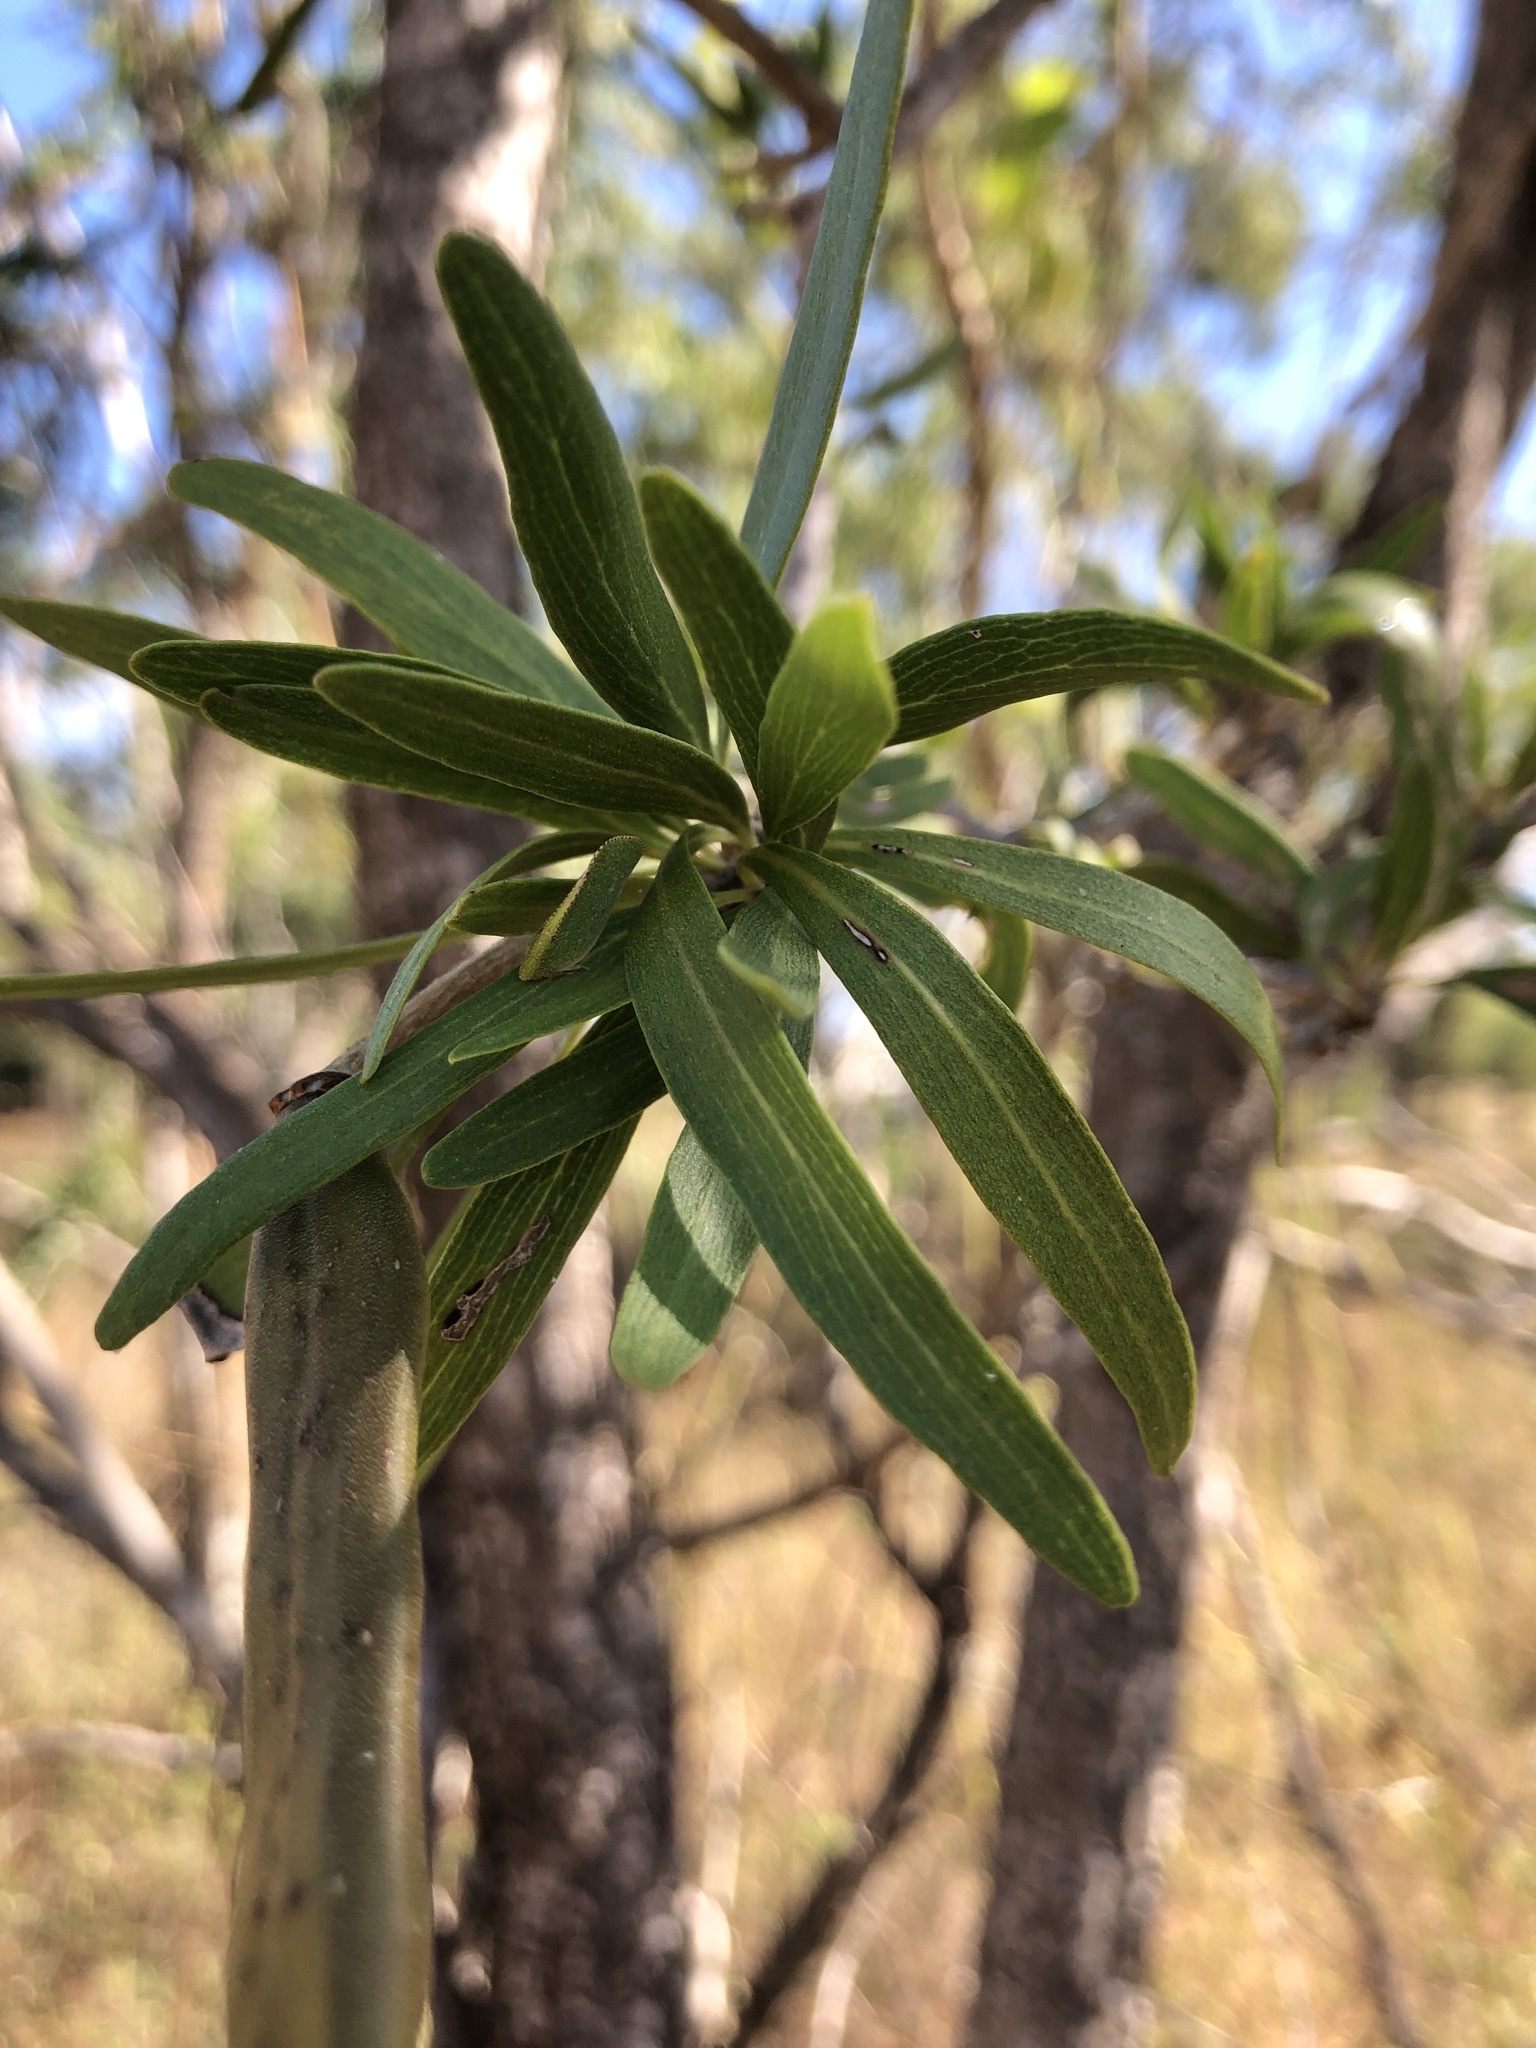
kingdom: Plantae
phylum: Tracheophyta
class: Magnoliopsida
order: Lamiales
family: Bignoniaceae
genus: Dolichandrone
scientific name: Dolichandrone alternifolia
